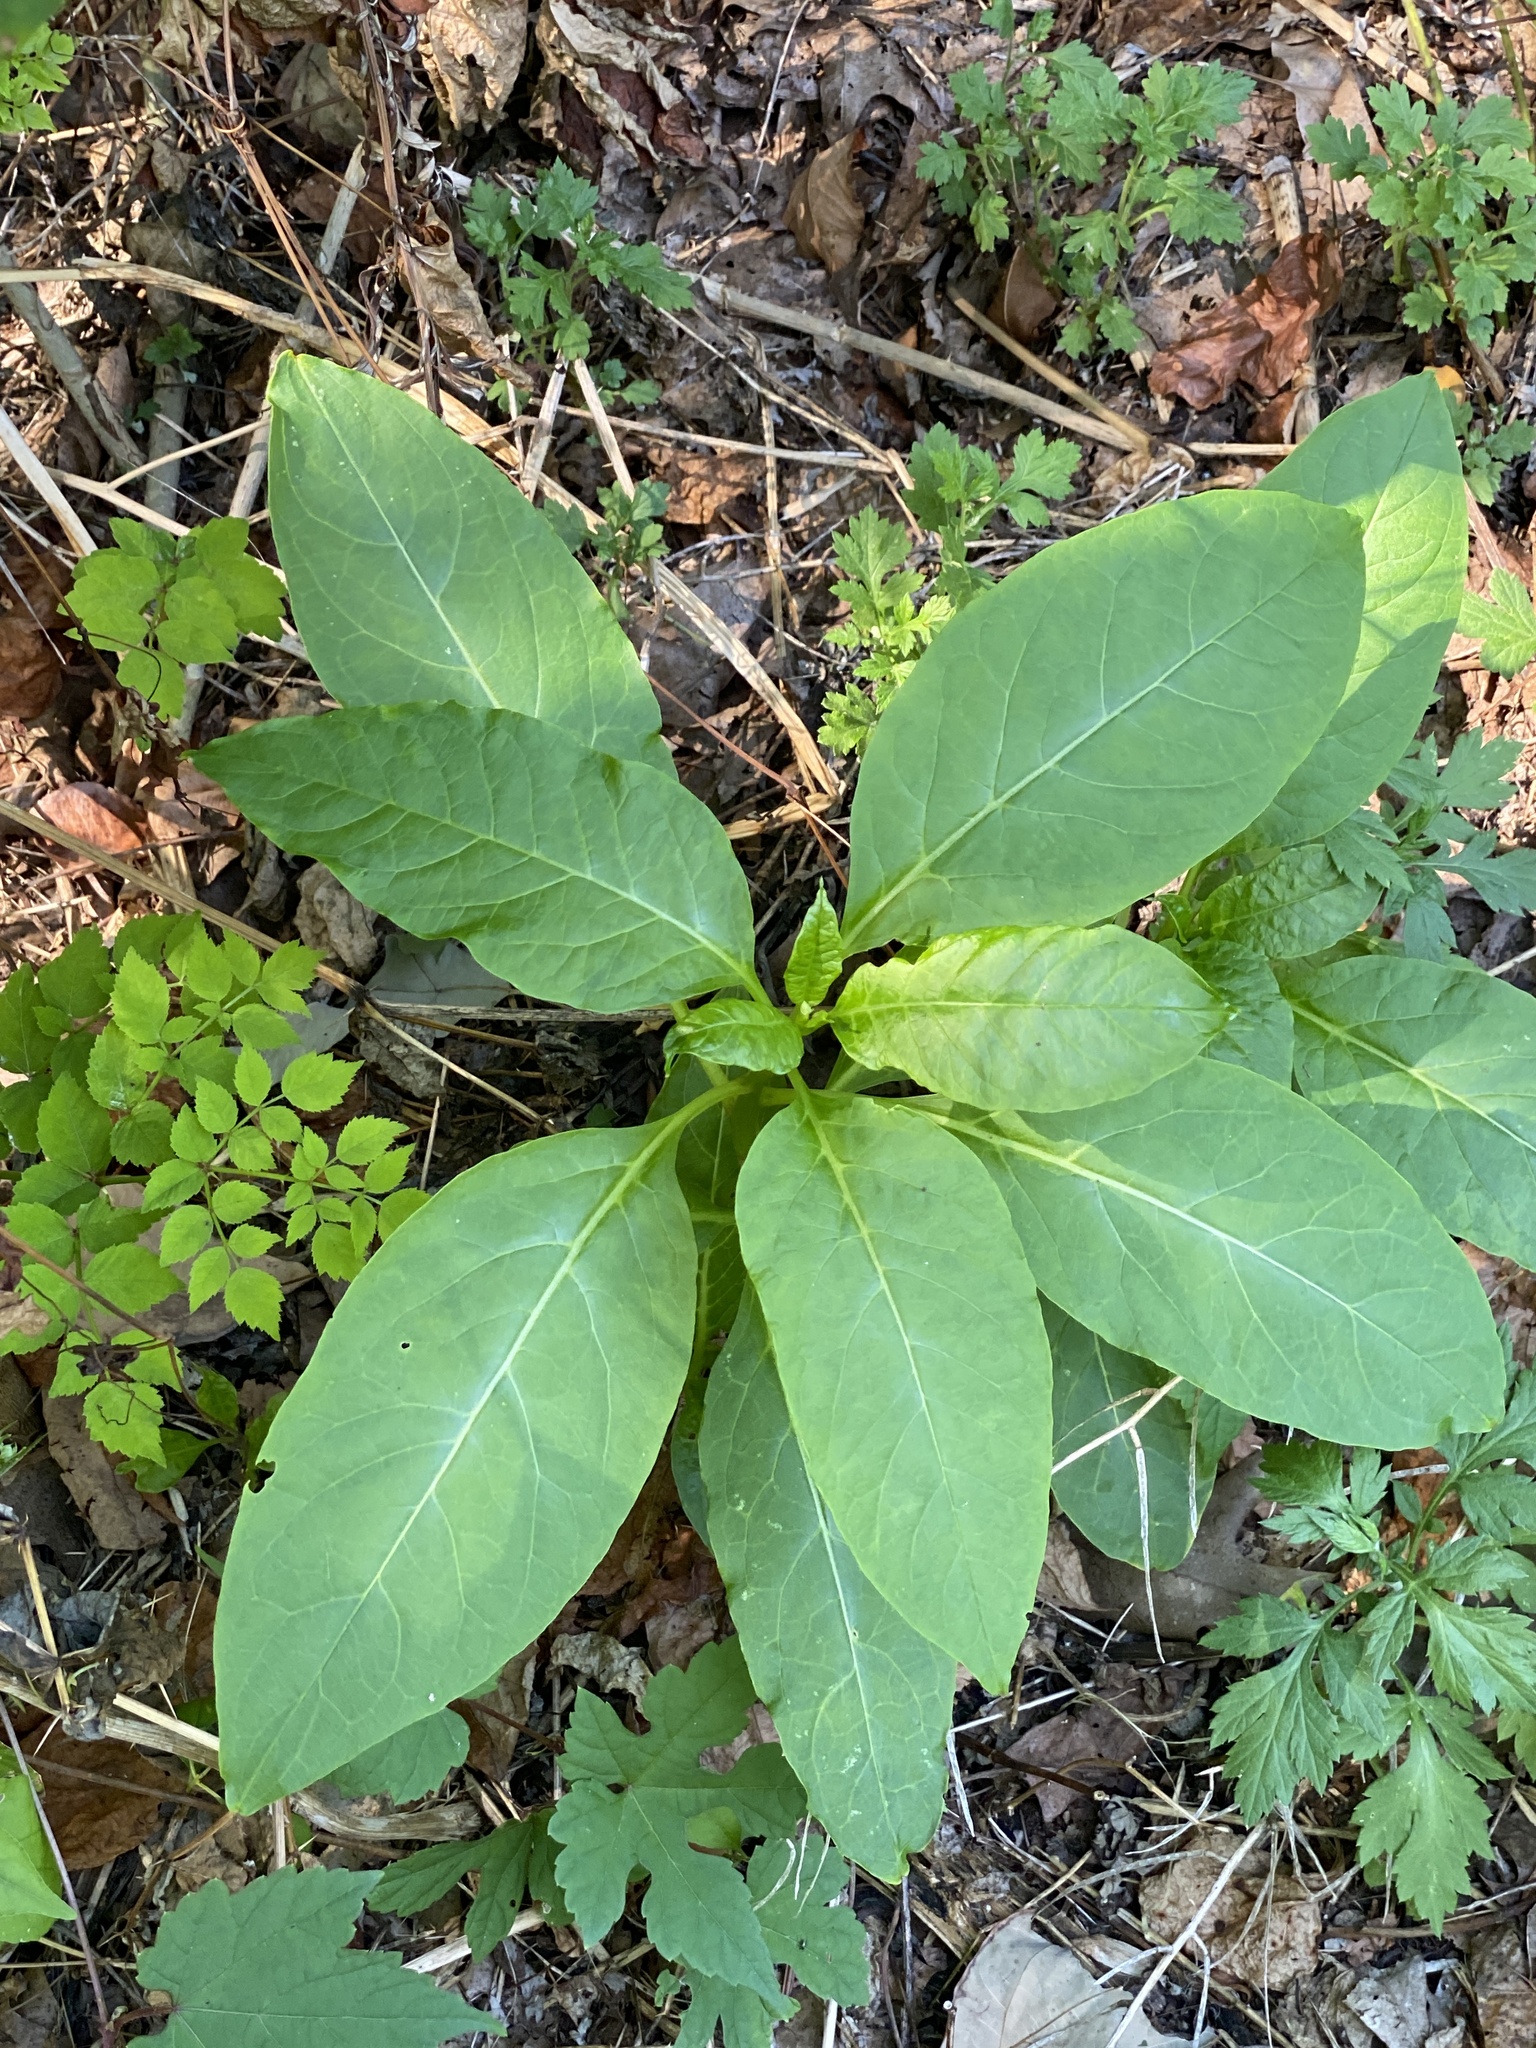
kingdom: Plantae
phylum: Tracheophyta
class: Magnoliopsida
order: Caryophyllales
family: Phytolaccaceae
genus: Phytolacca
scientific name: Phytolacca americana
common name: American pokeweed
